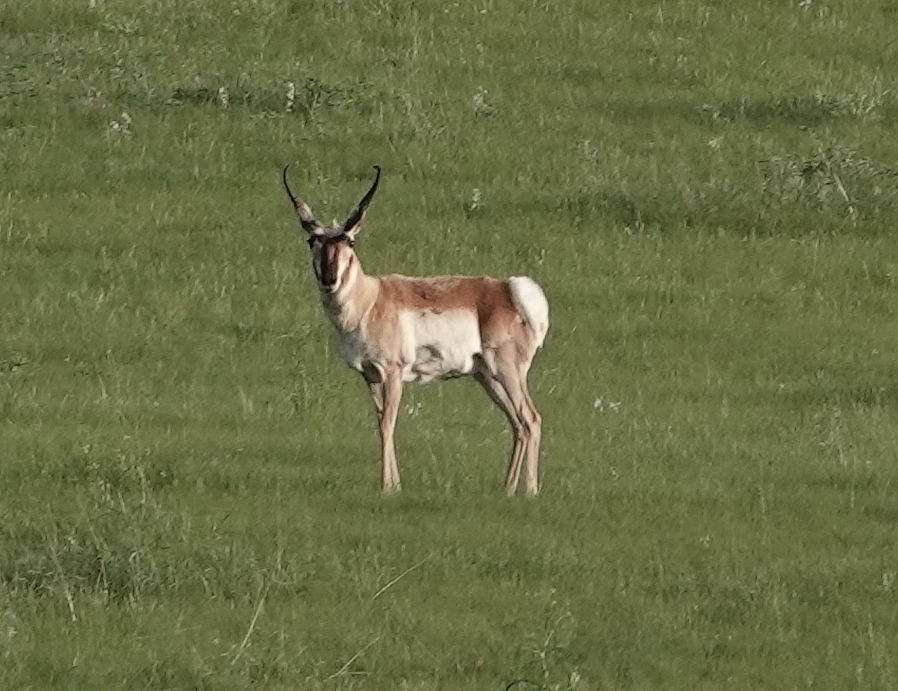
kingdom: Animalia
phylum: Chordata
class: Mammalia
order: Artiodactyla
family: Antilocapridae
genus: Antilocapra
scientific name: Antilocapra americana
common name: Pronghorn
